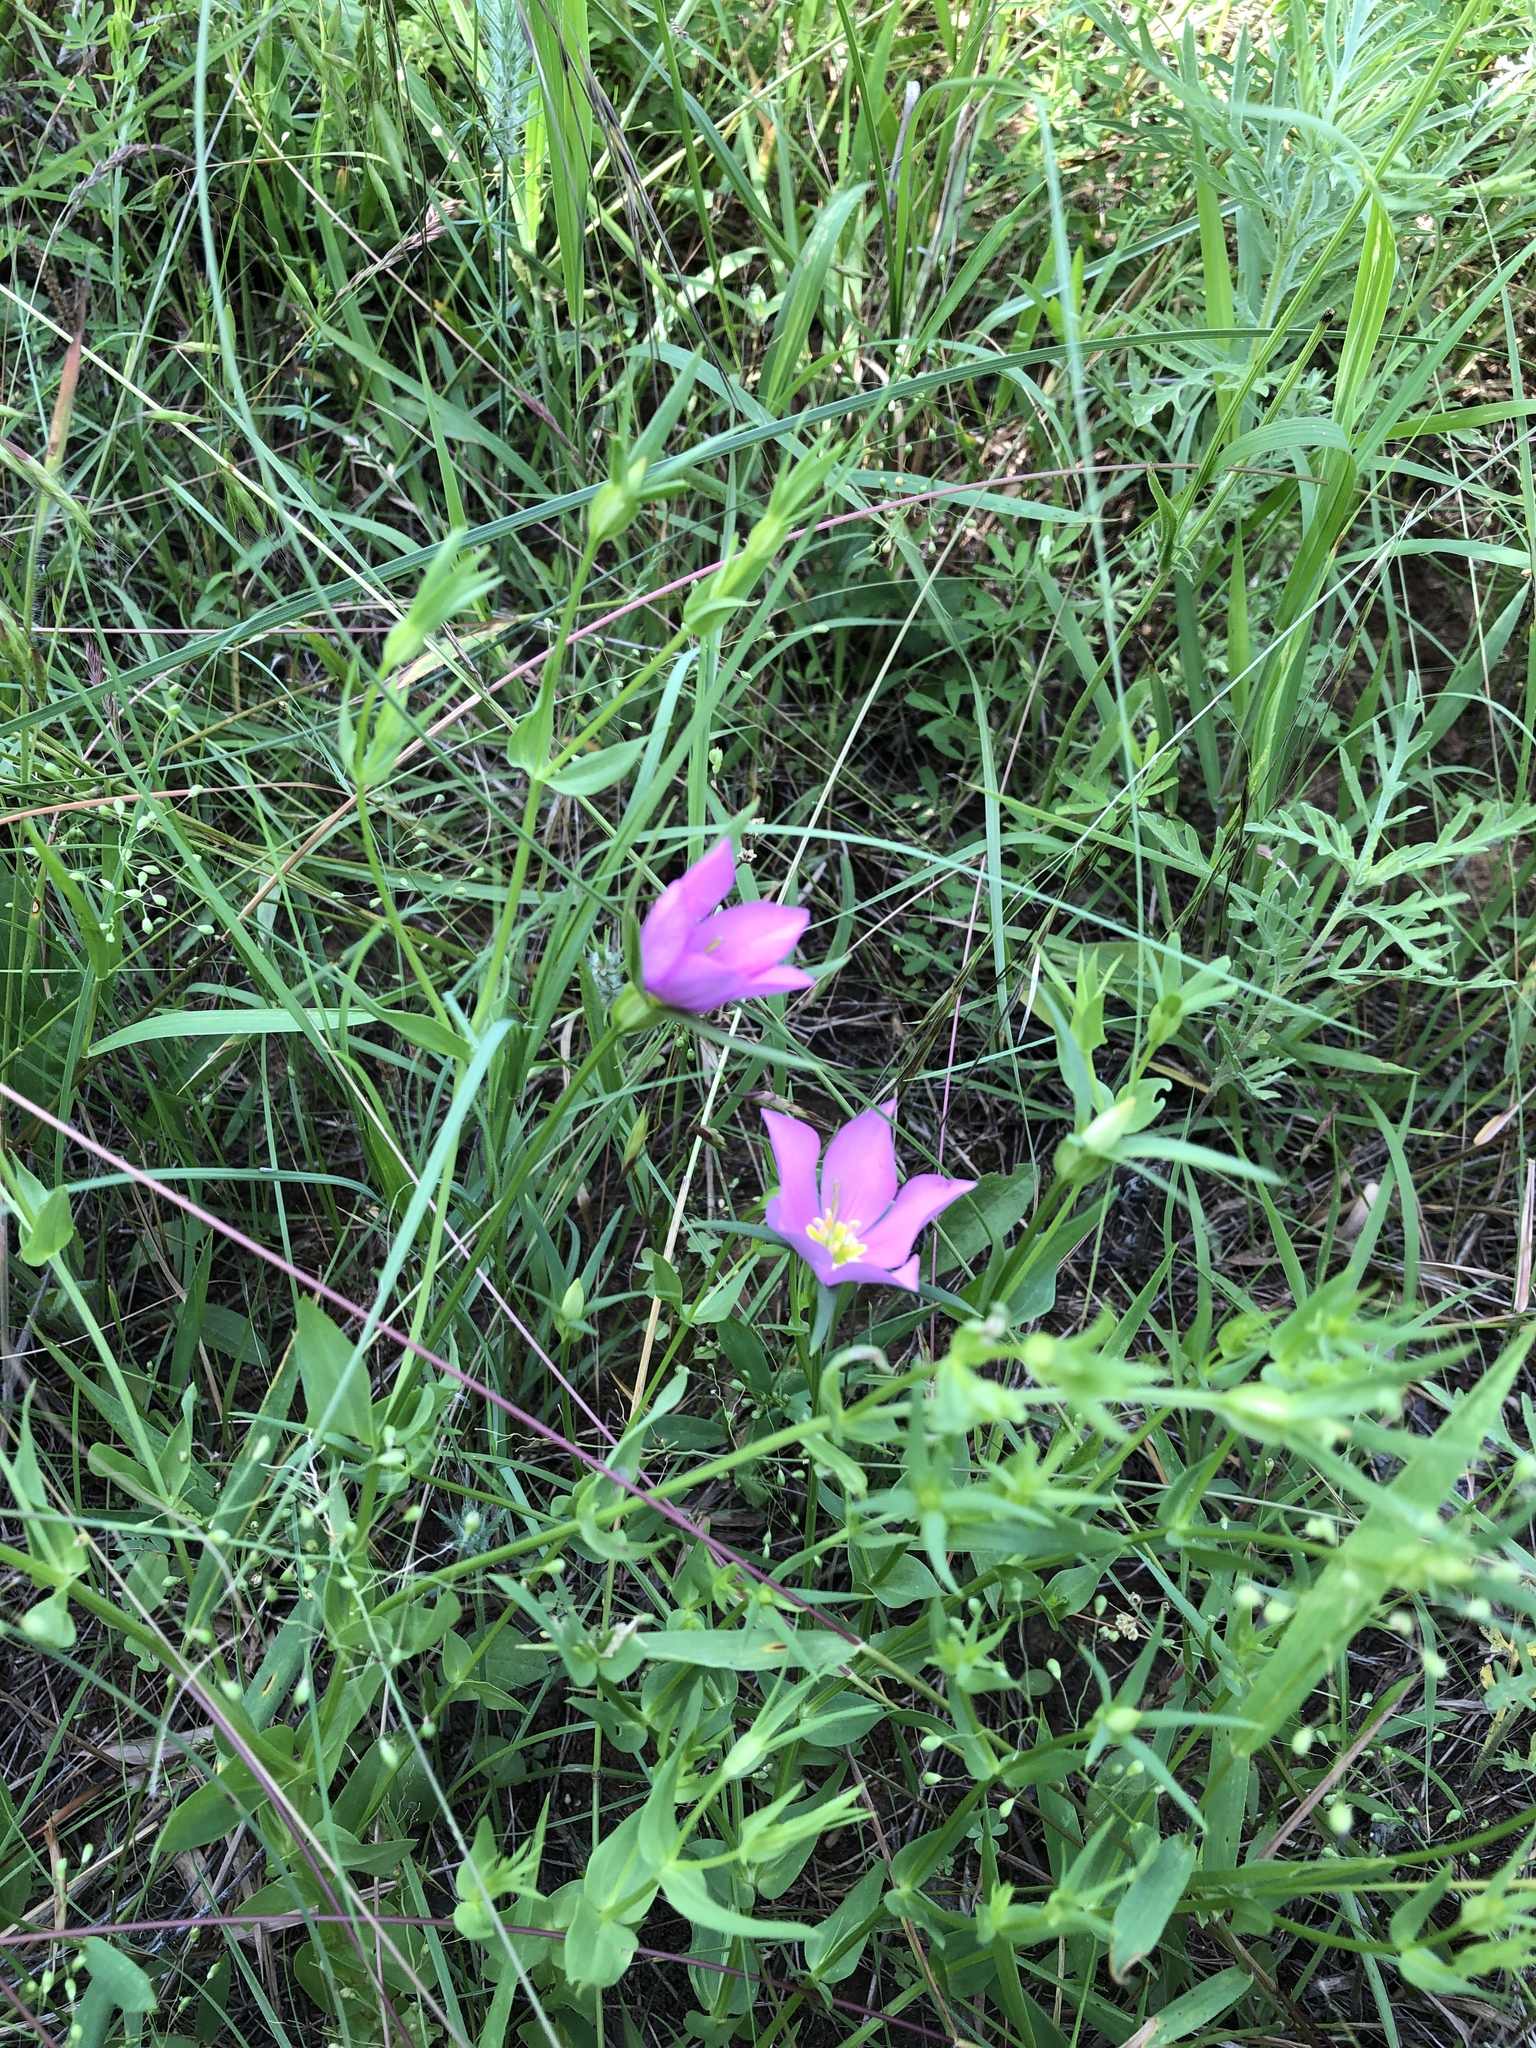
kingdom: Plantae
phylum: Tracheophyta
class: Magnoliopsida
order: Gentianales
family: Gentianaceae
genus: Sabatia
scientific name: Sabatia campestris
